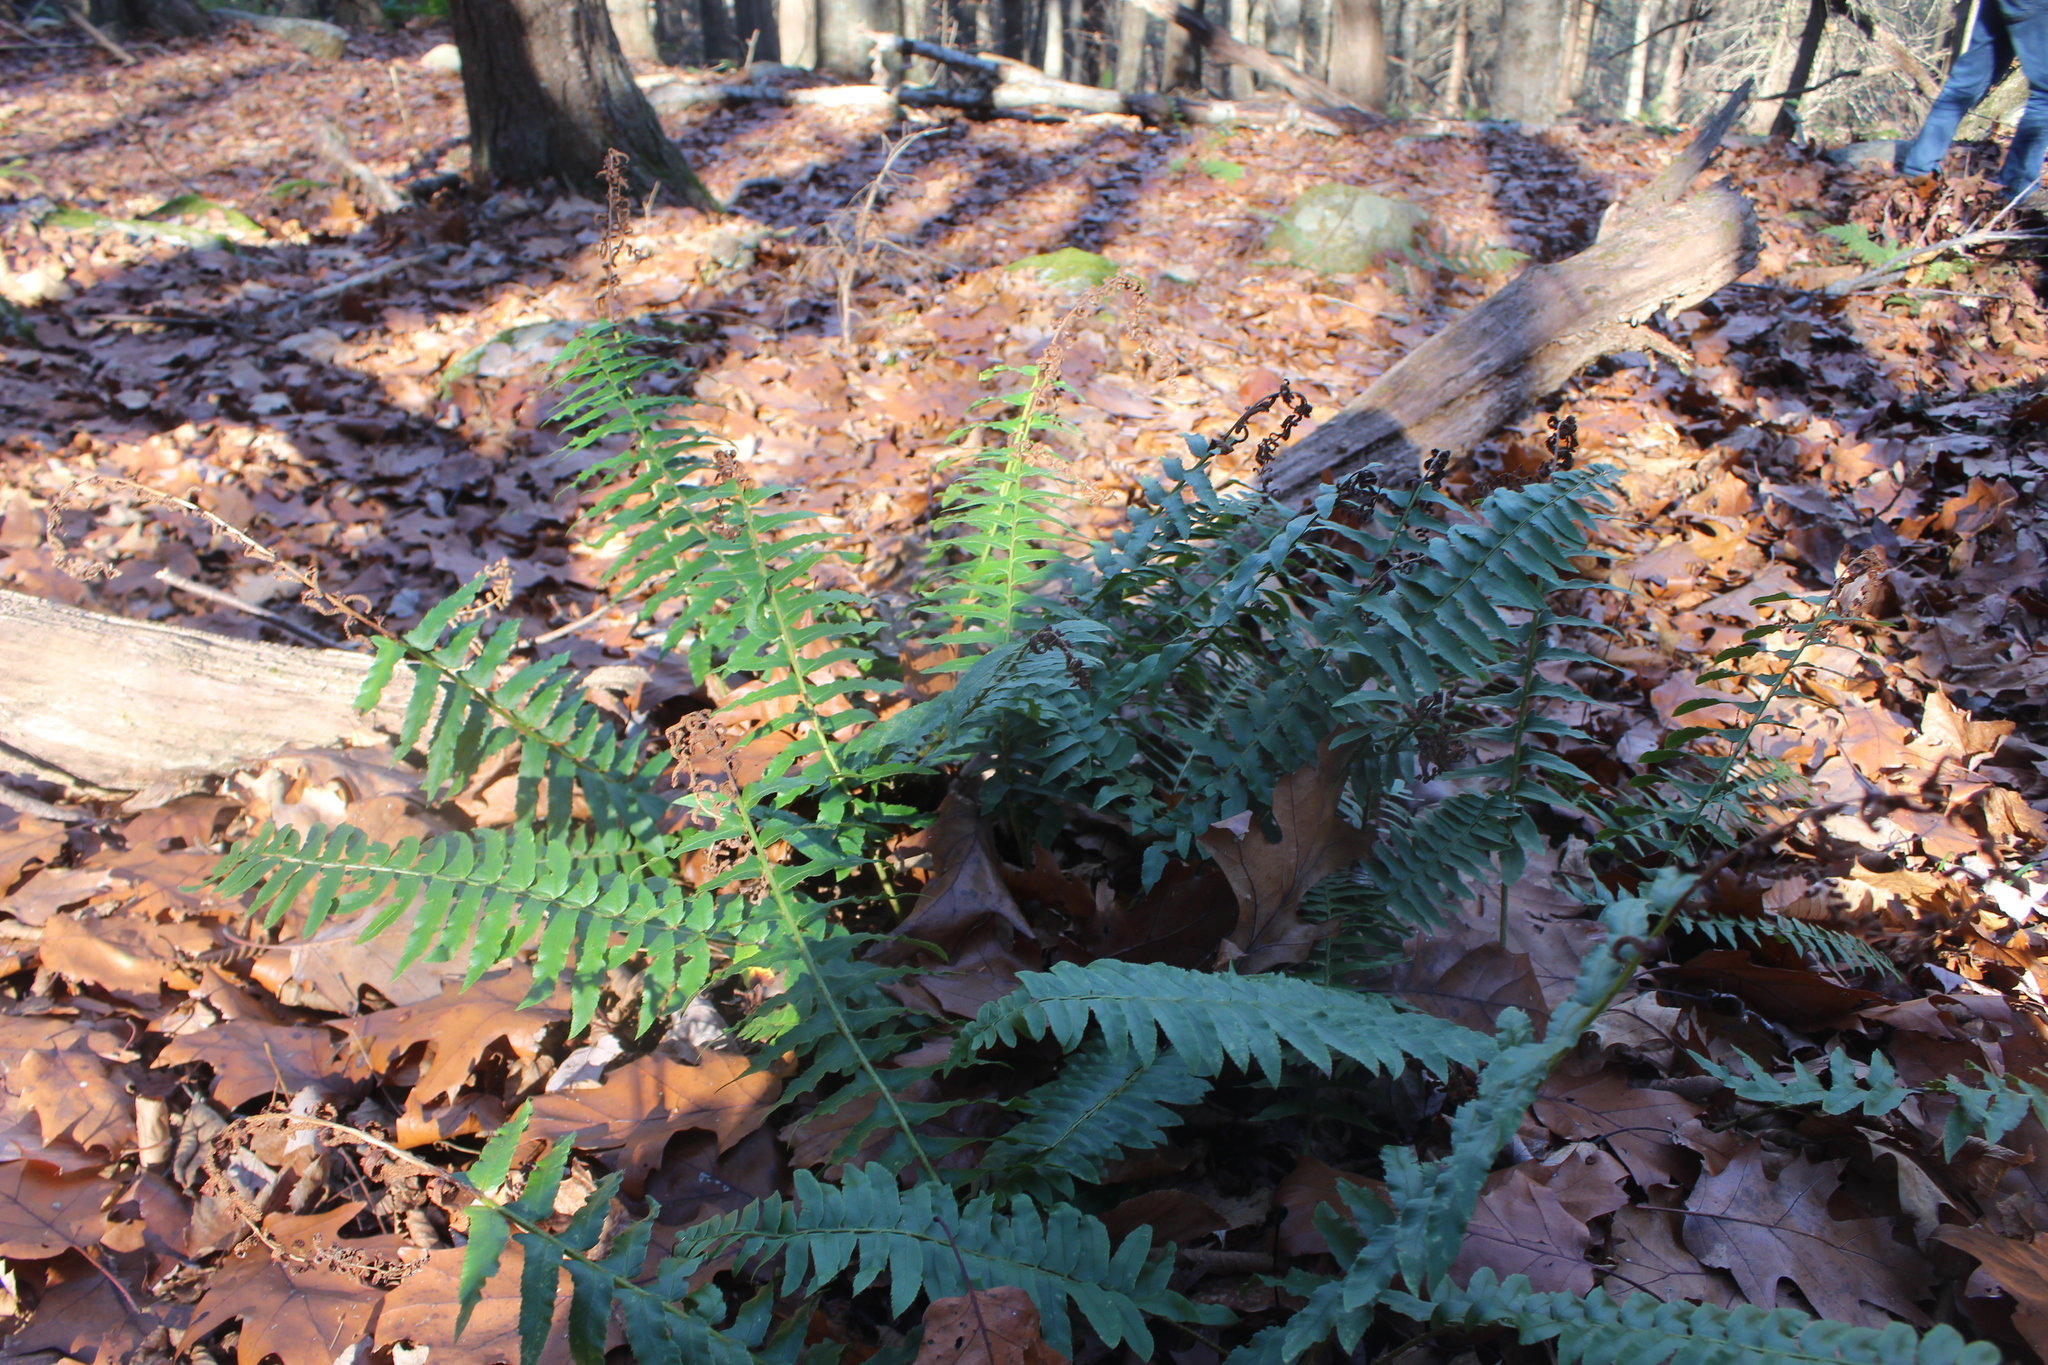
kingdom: Plantae
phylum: Tracheophyta
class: Polypodiopsida
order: Polypodiales
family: Dryopteridaceae
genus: Polystichum
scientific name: Polystichum acrostichoides
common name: Christmas fern
